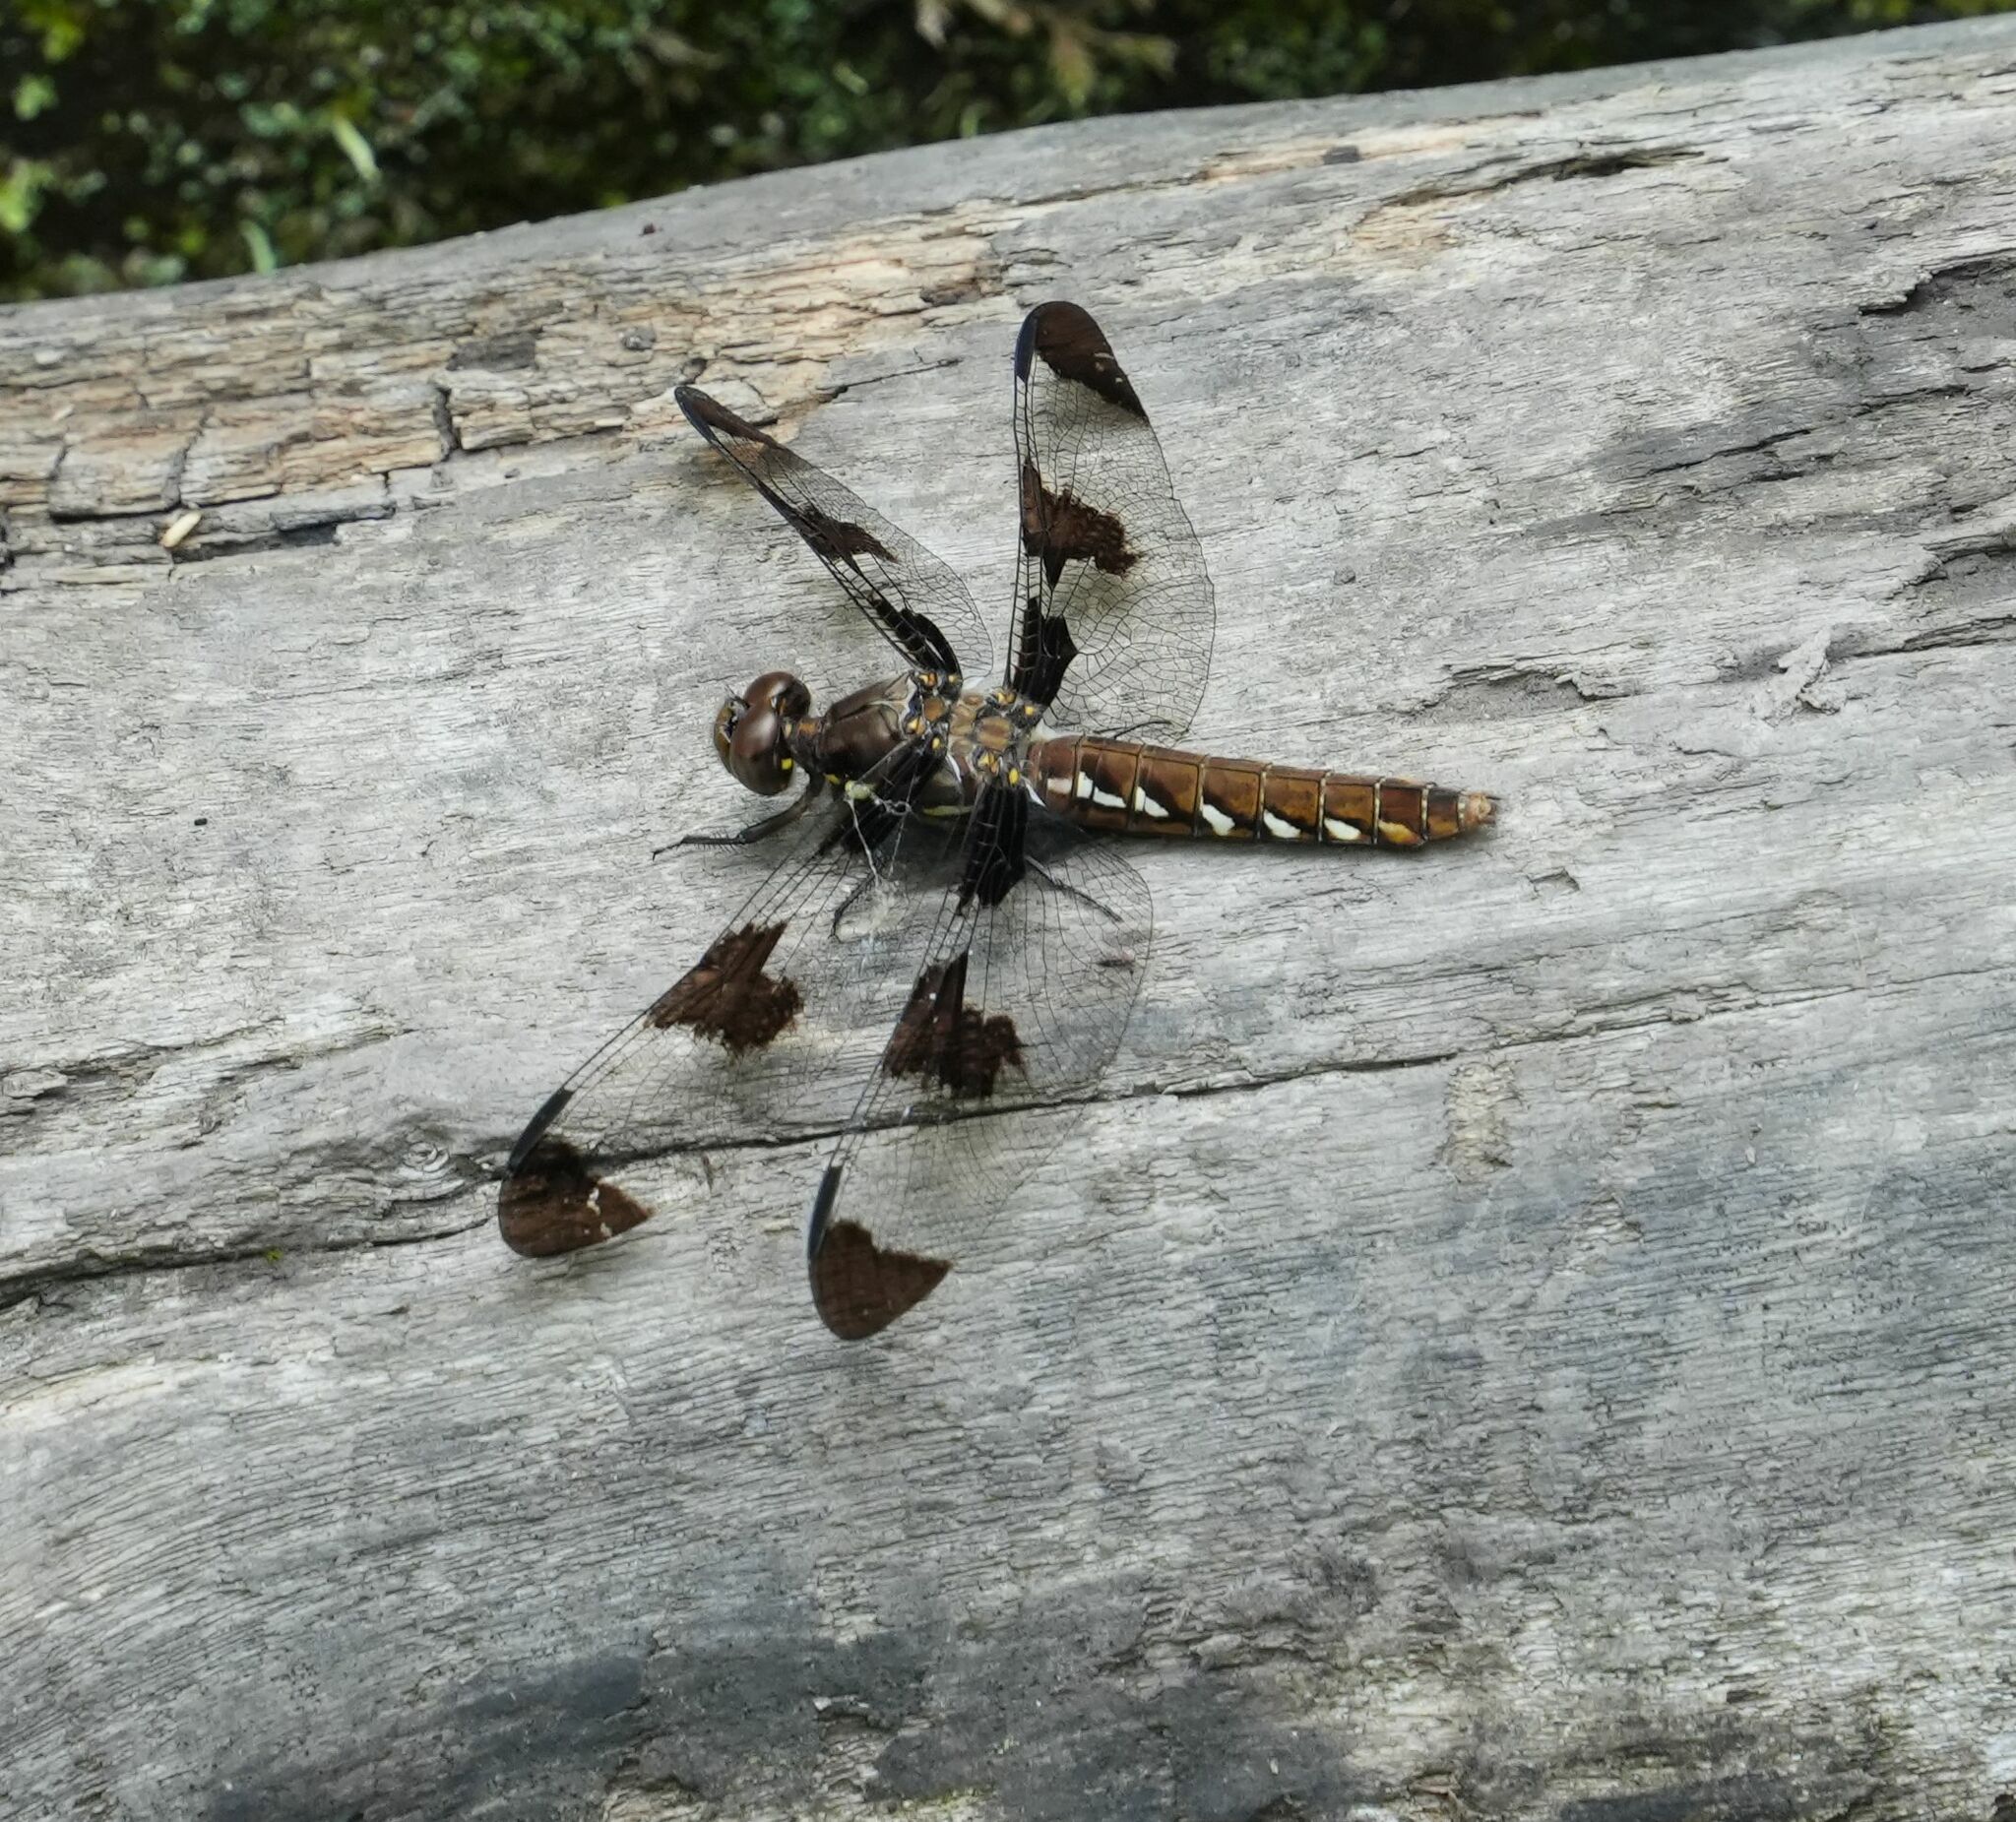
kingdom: Animalia
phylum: Arthropoda
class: Insecta
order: Odonata
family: Libellulidae
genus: Plathemis
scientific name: Plathemis lydia
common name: Common whitetail
